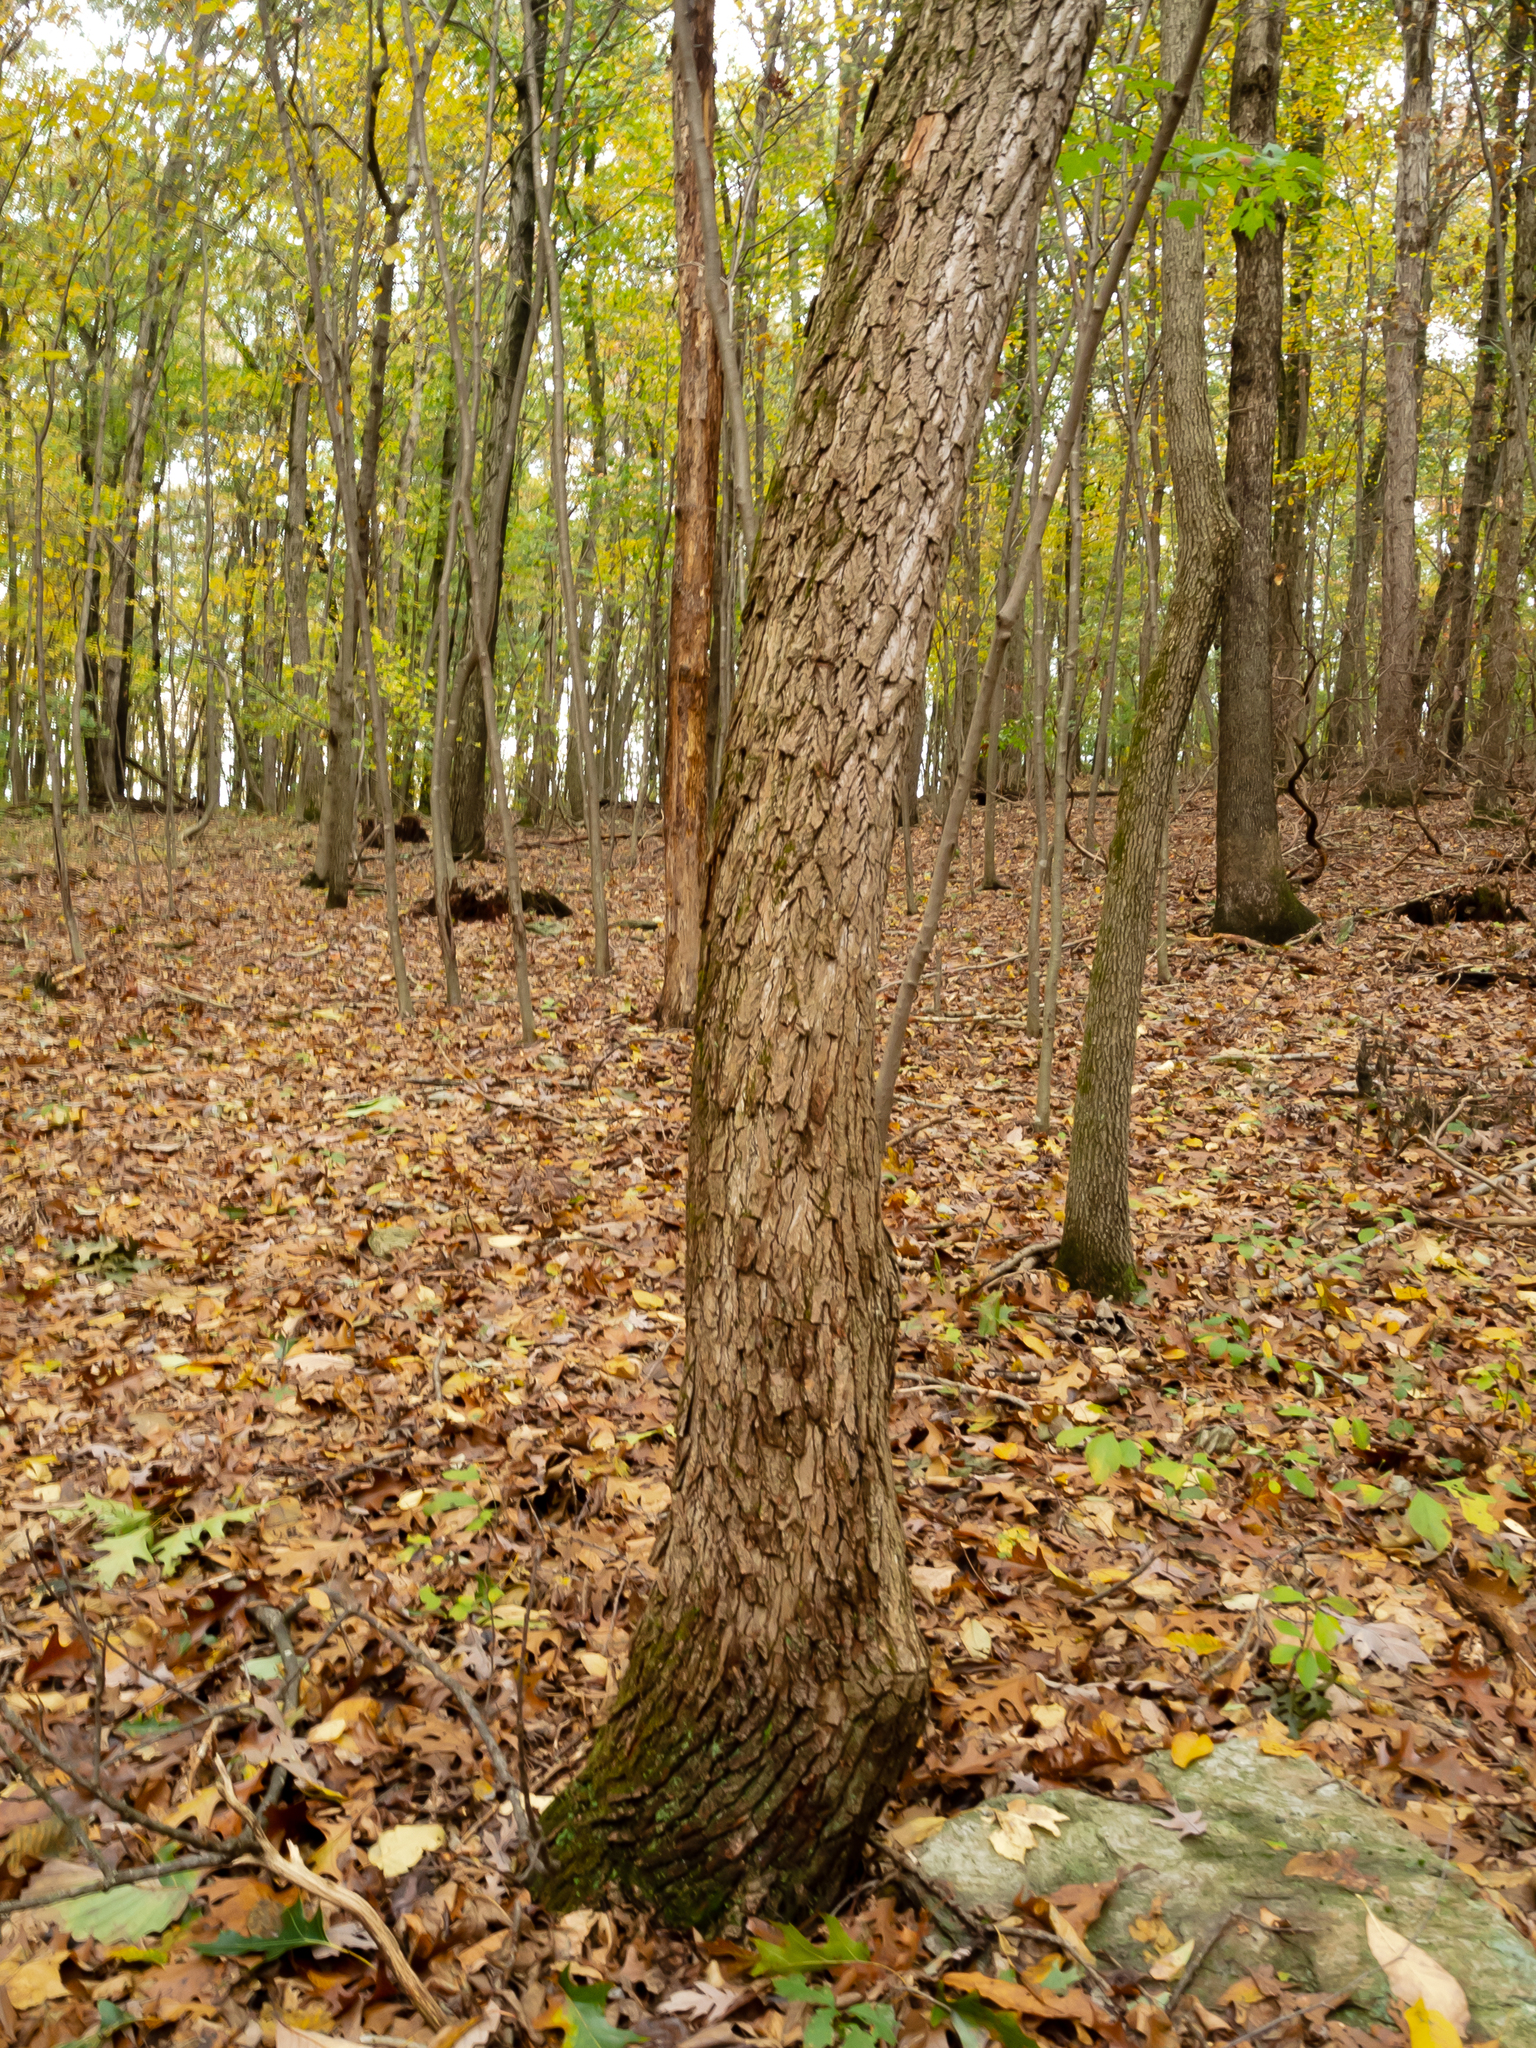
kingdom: Plantae
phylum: Tracheophyta
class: Magnoliopsida
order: Laurales
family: Lauraceae
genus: Sassafras
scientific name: Sassafras albidum
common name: Sassafras
